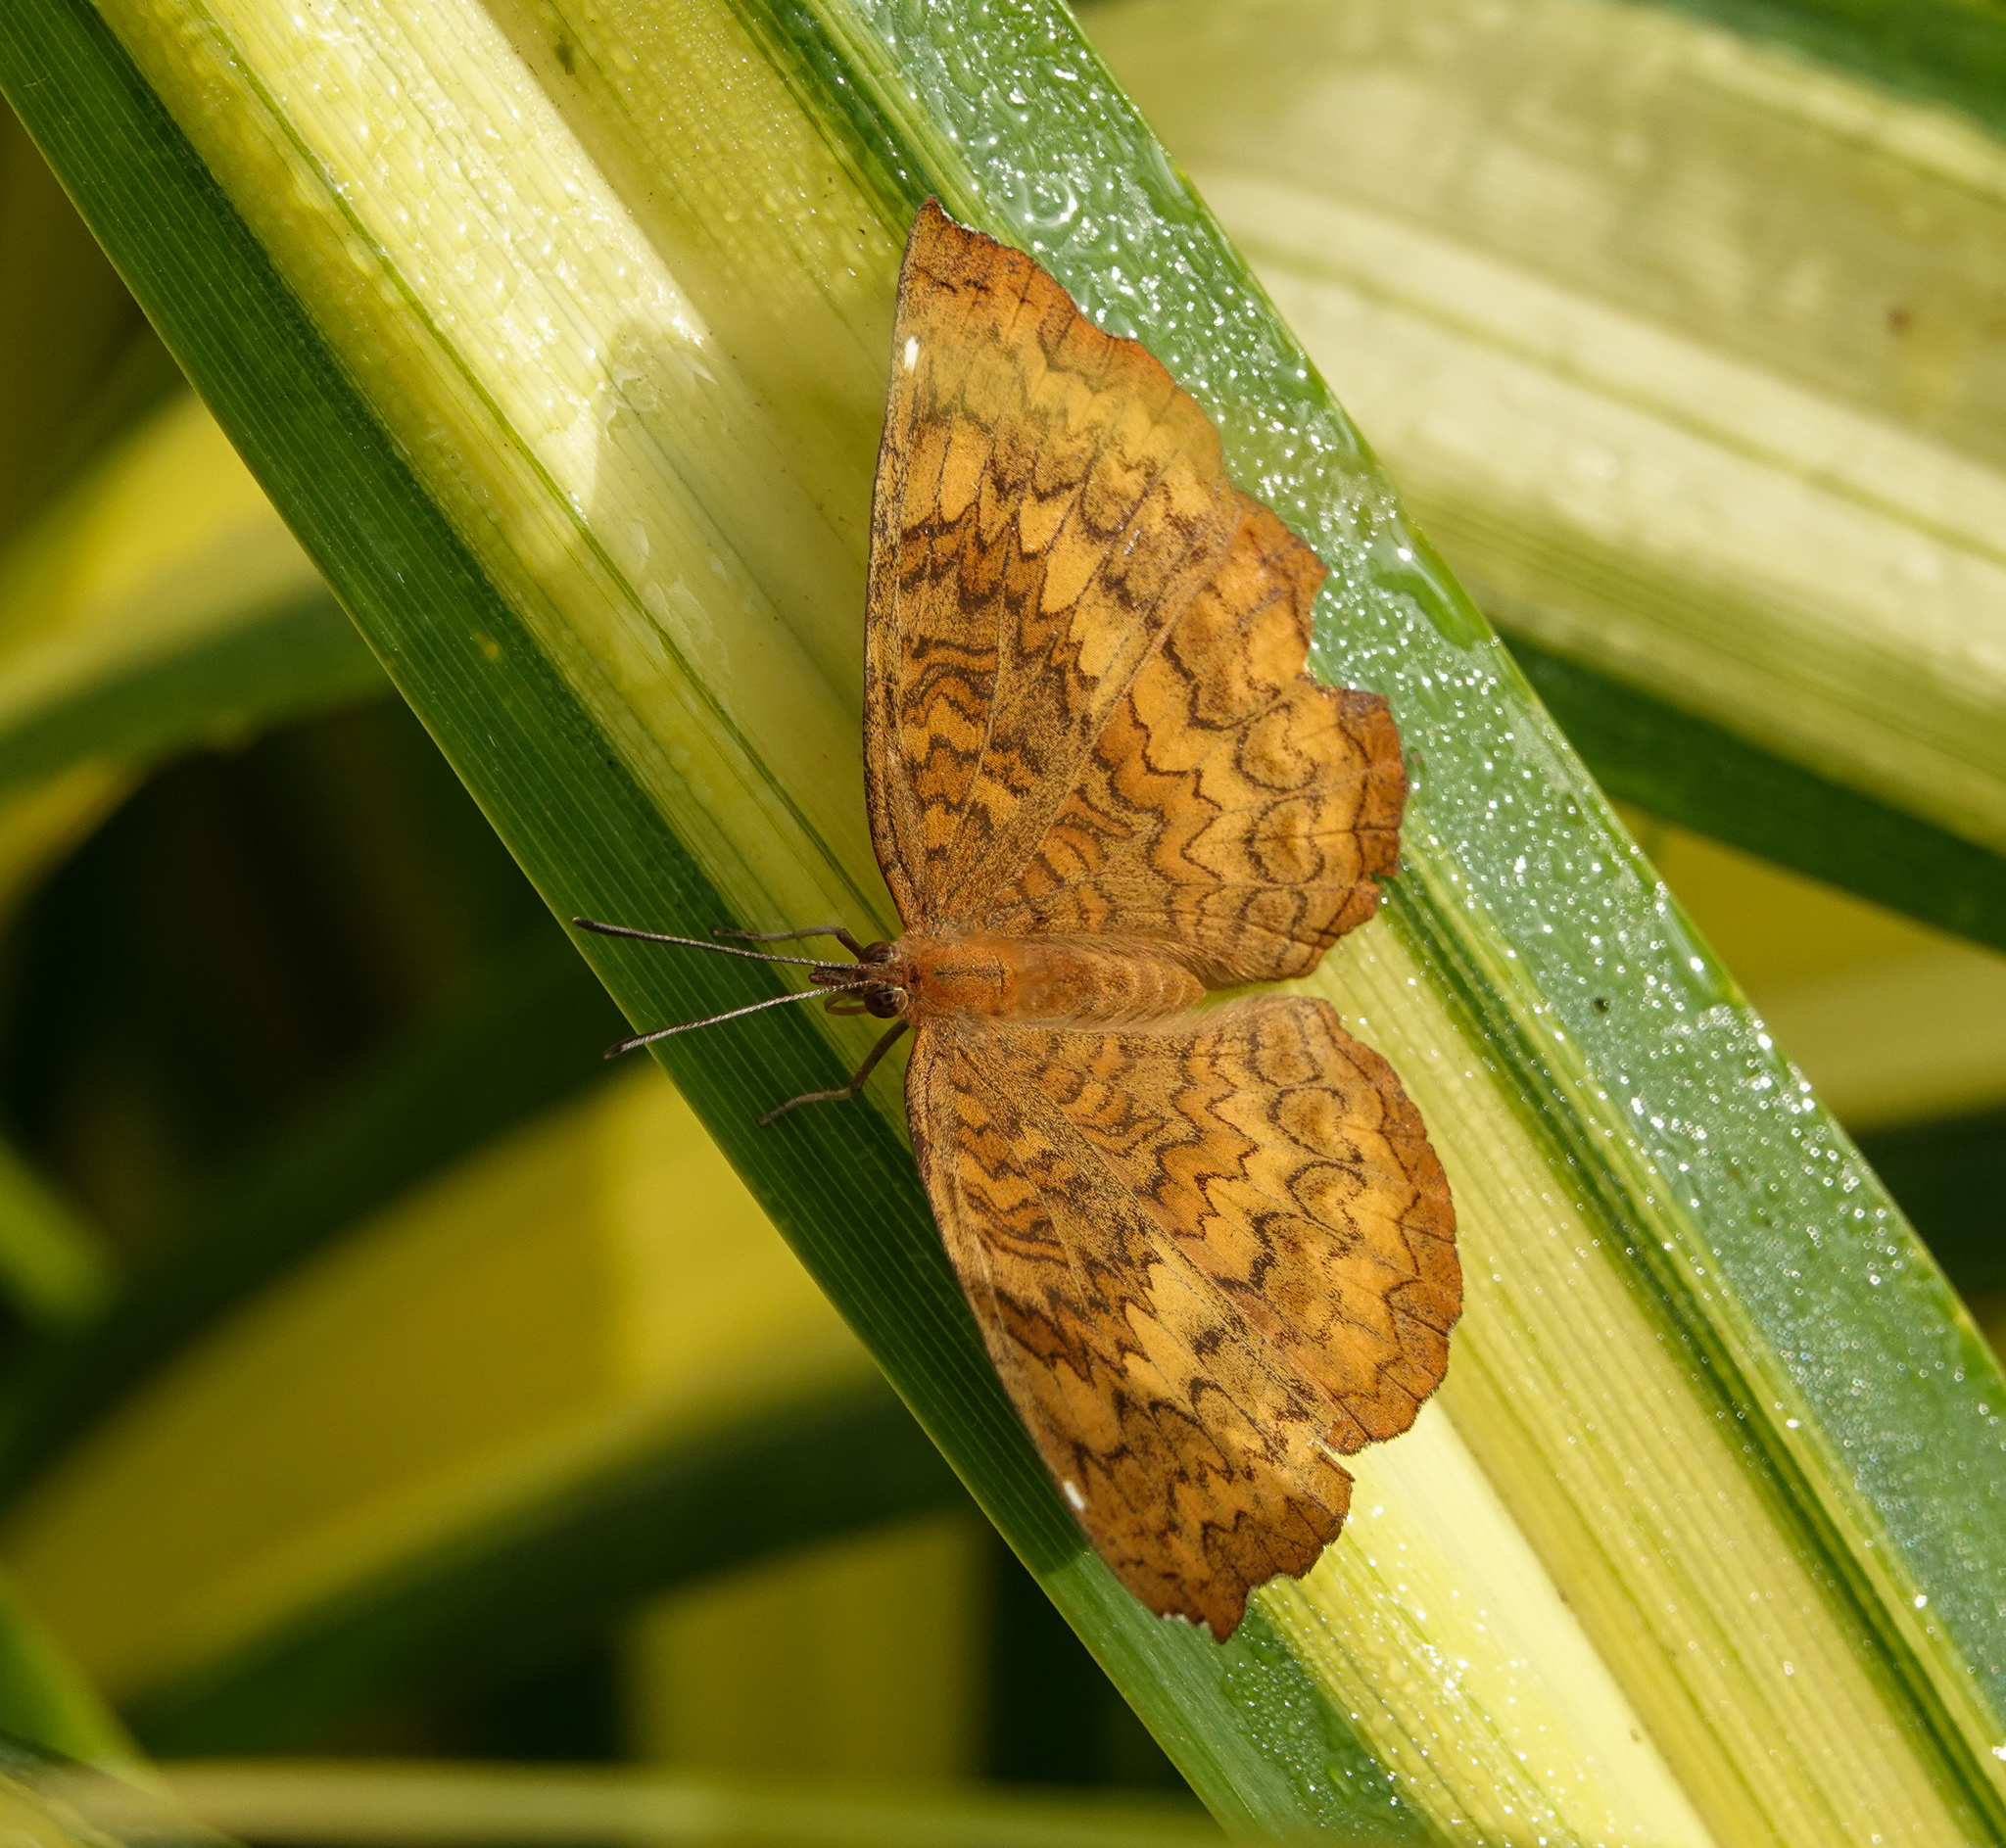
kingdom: Animalia
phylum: Arthropoda
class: Insecta
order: Lepidoptera
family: Nymphalidae
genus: Ariadne
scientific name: Ariadne merione
